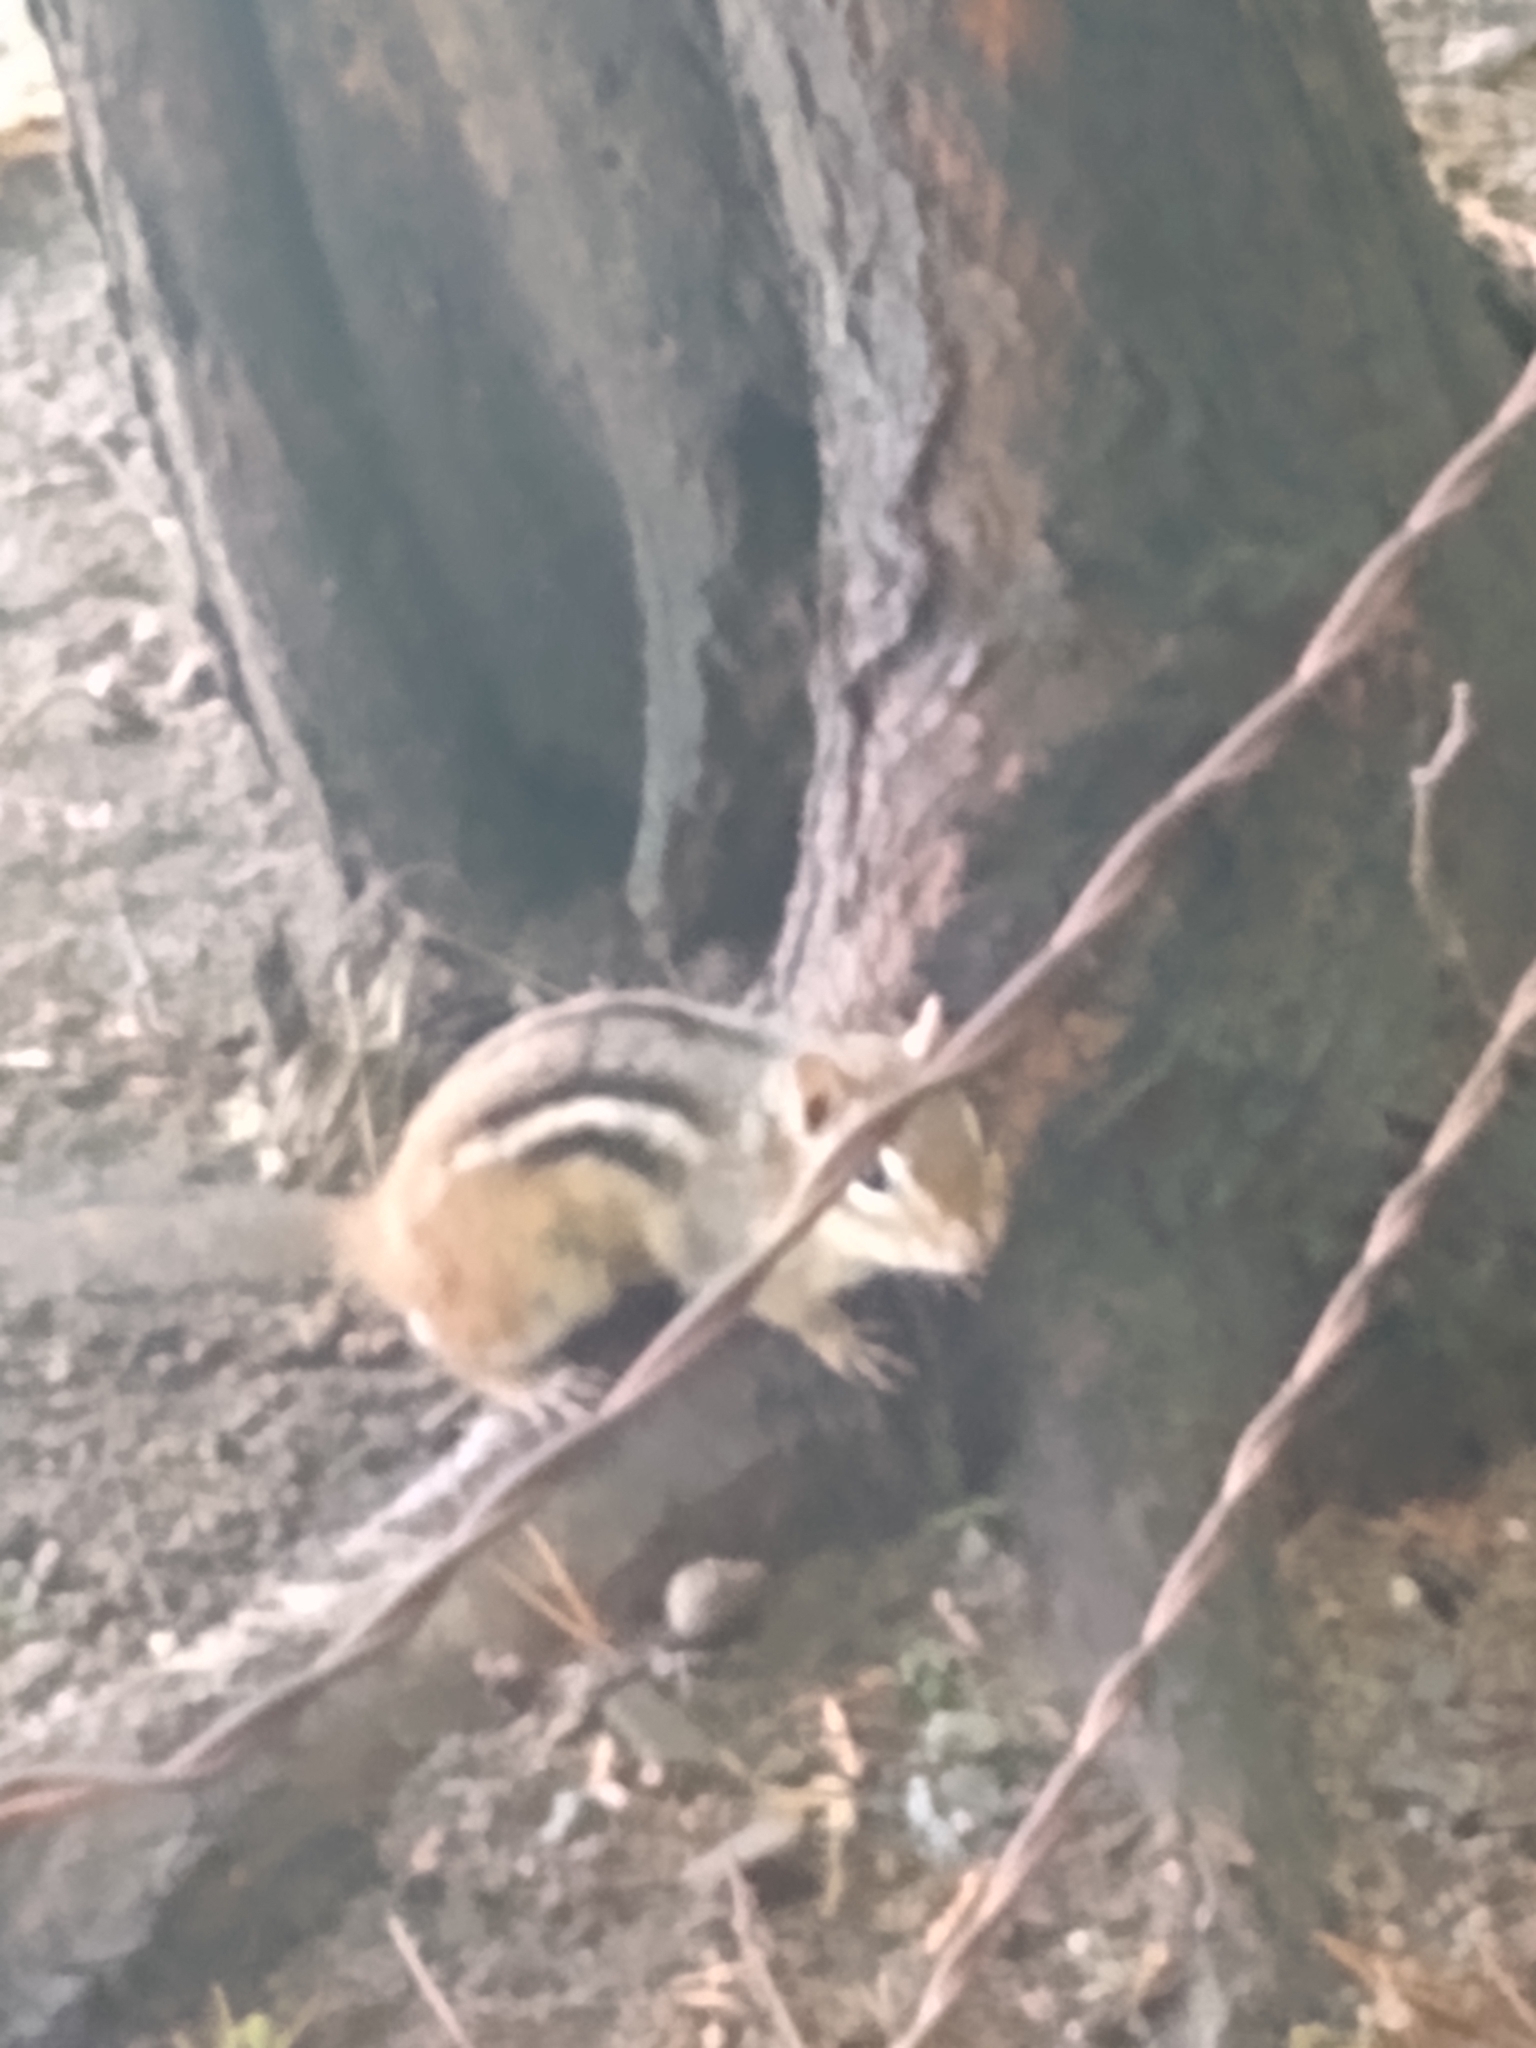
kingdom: Animalia
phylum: Chordata
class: Mammalia
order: Rodentia
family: Sciuridae
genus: Tamias
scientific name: Tamias striatus
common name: Eastern chipmunk
